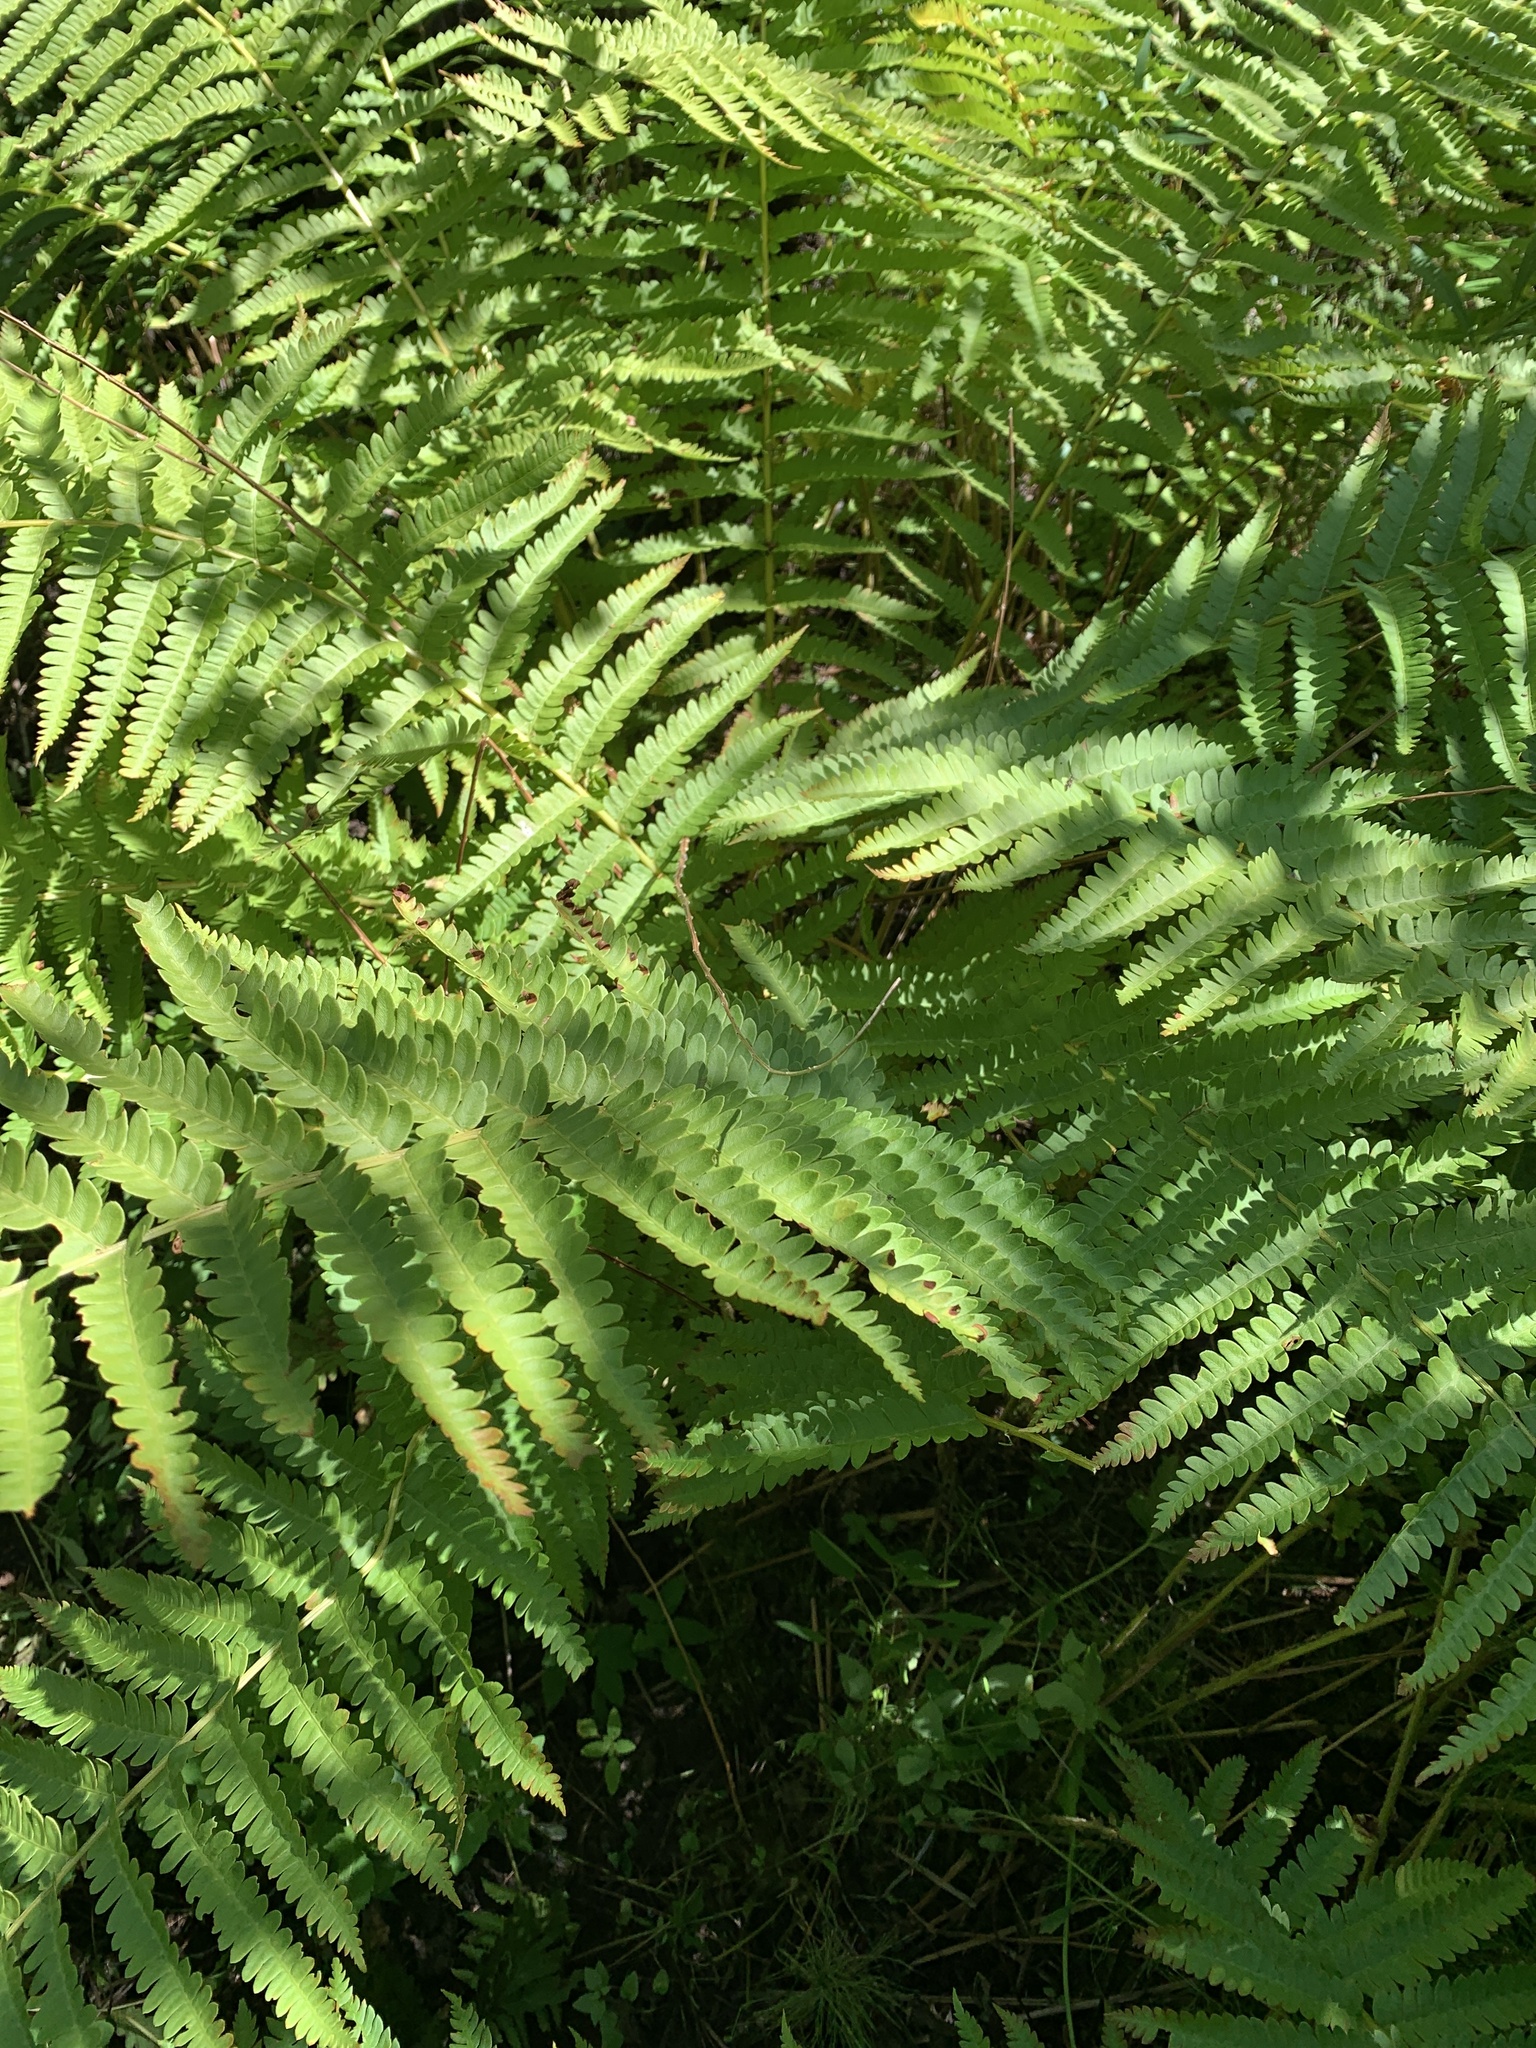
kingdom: Plantae
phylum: Tracheophyta
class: Polypodiopsida
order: Osmundales
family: Osmundaceae
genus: Osmundastrum
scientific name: Osmundastrum cinnamomeum
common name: Cinnamon fern
